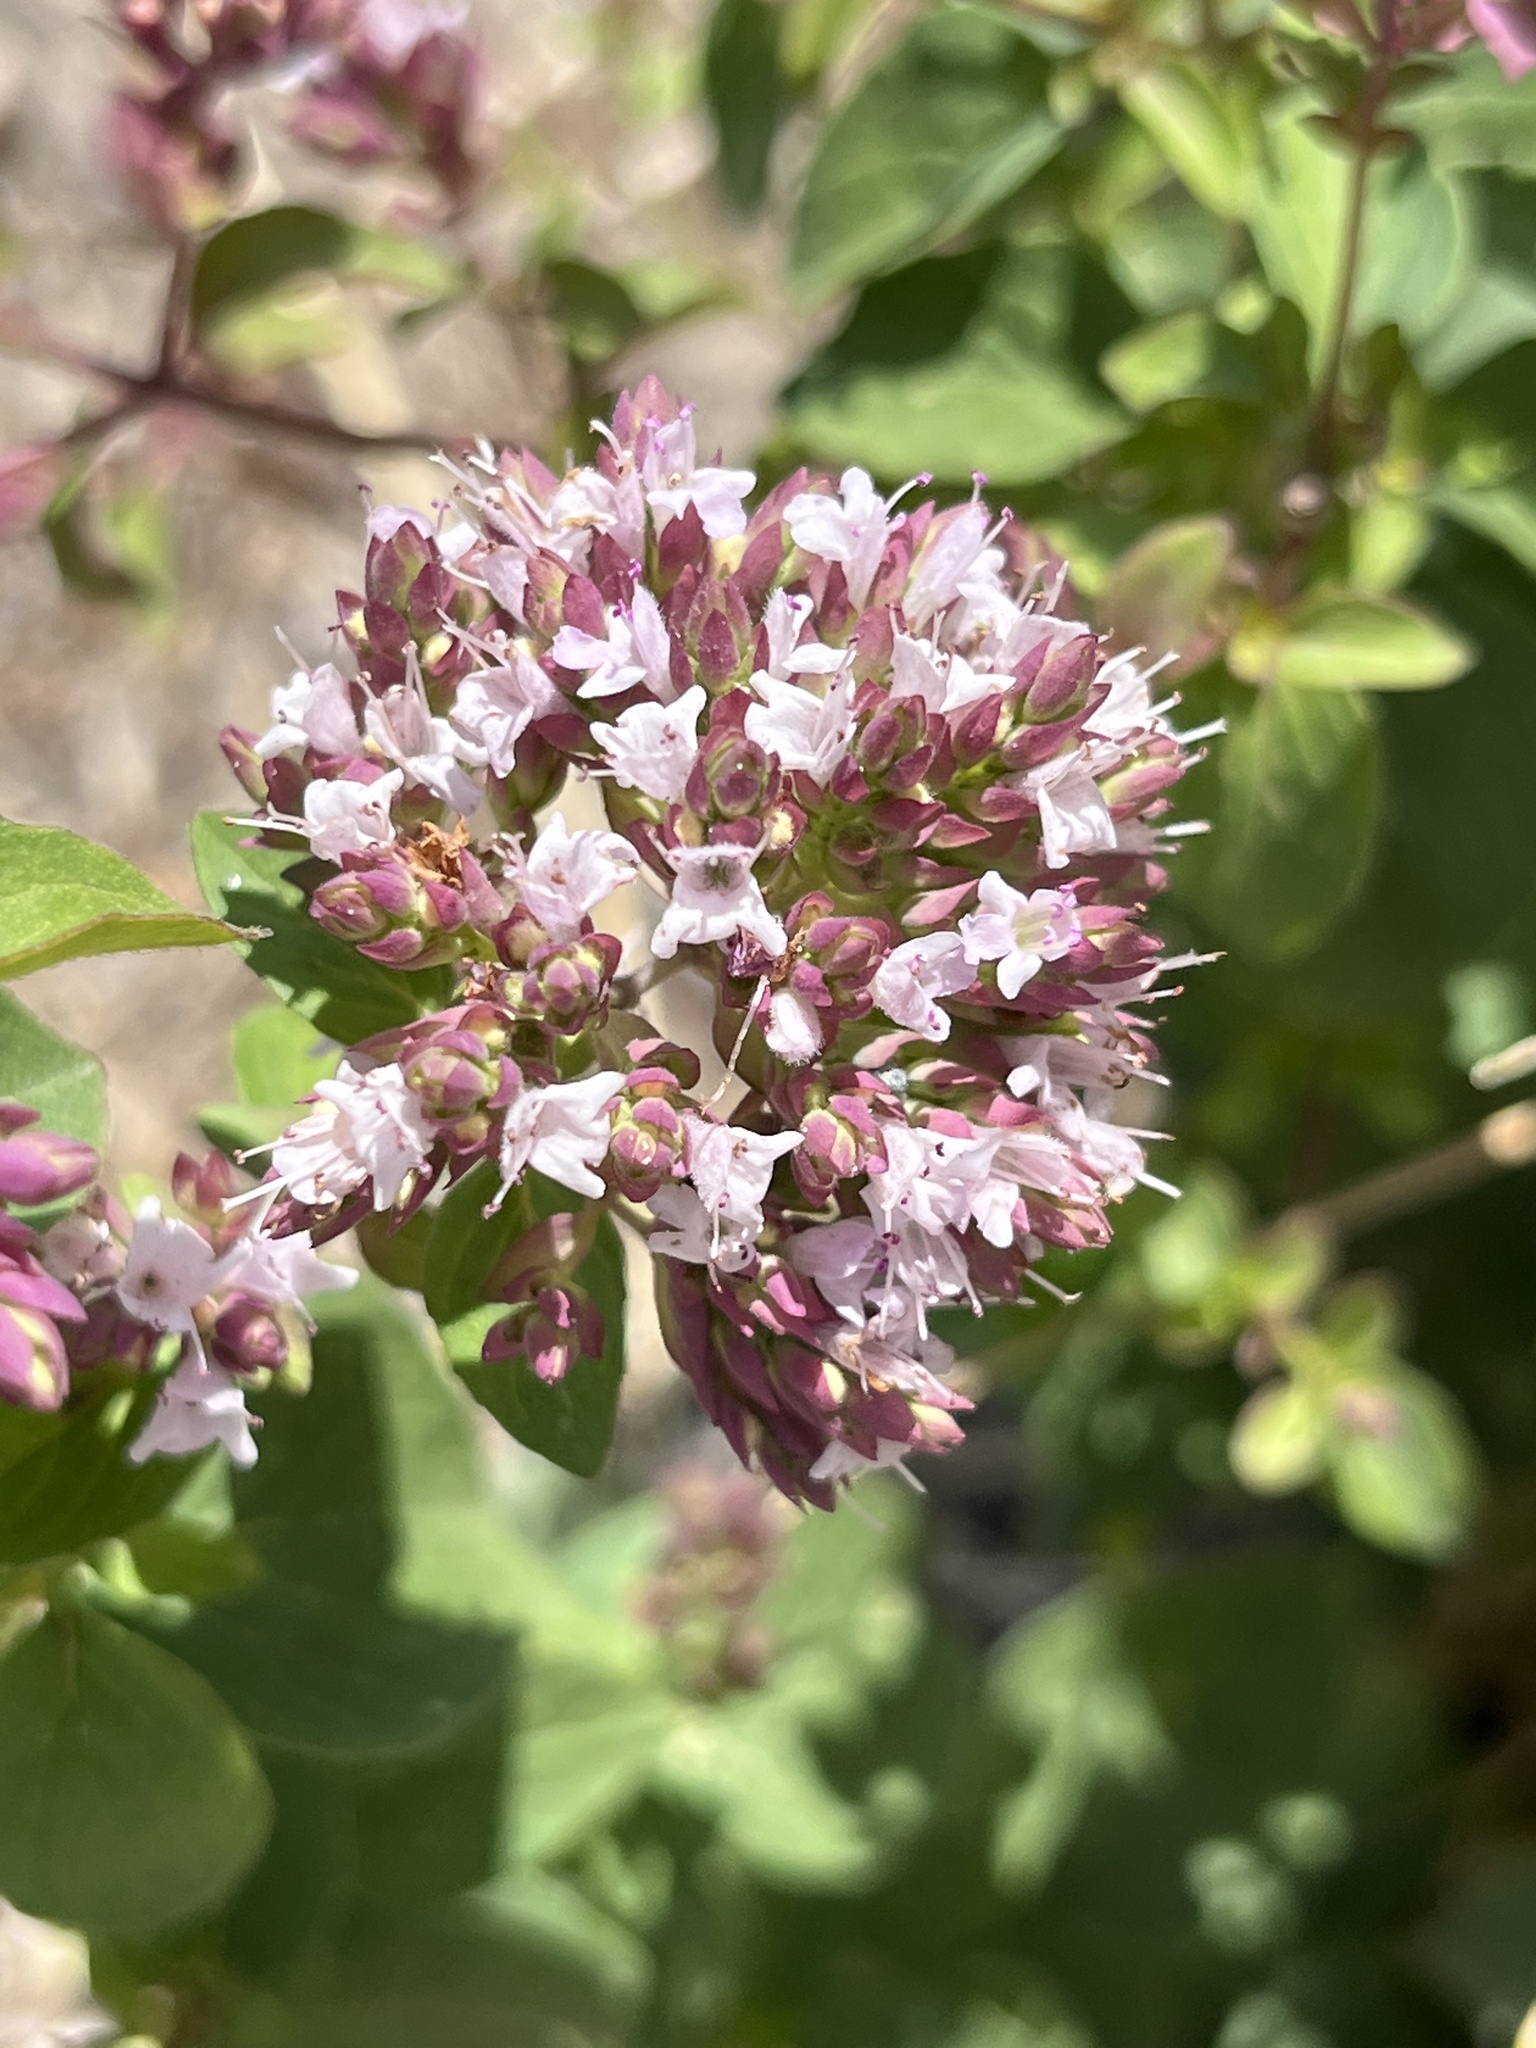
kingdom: Plantae
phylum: Tracheophyta
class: Magnoliopsida
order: Lamiales
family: Lamiaceae
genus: Origanum
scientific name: Origanum vulgare
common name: Wild marjoram
